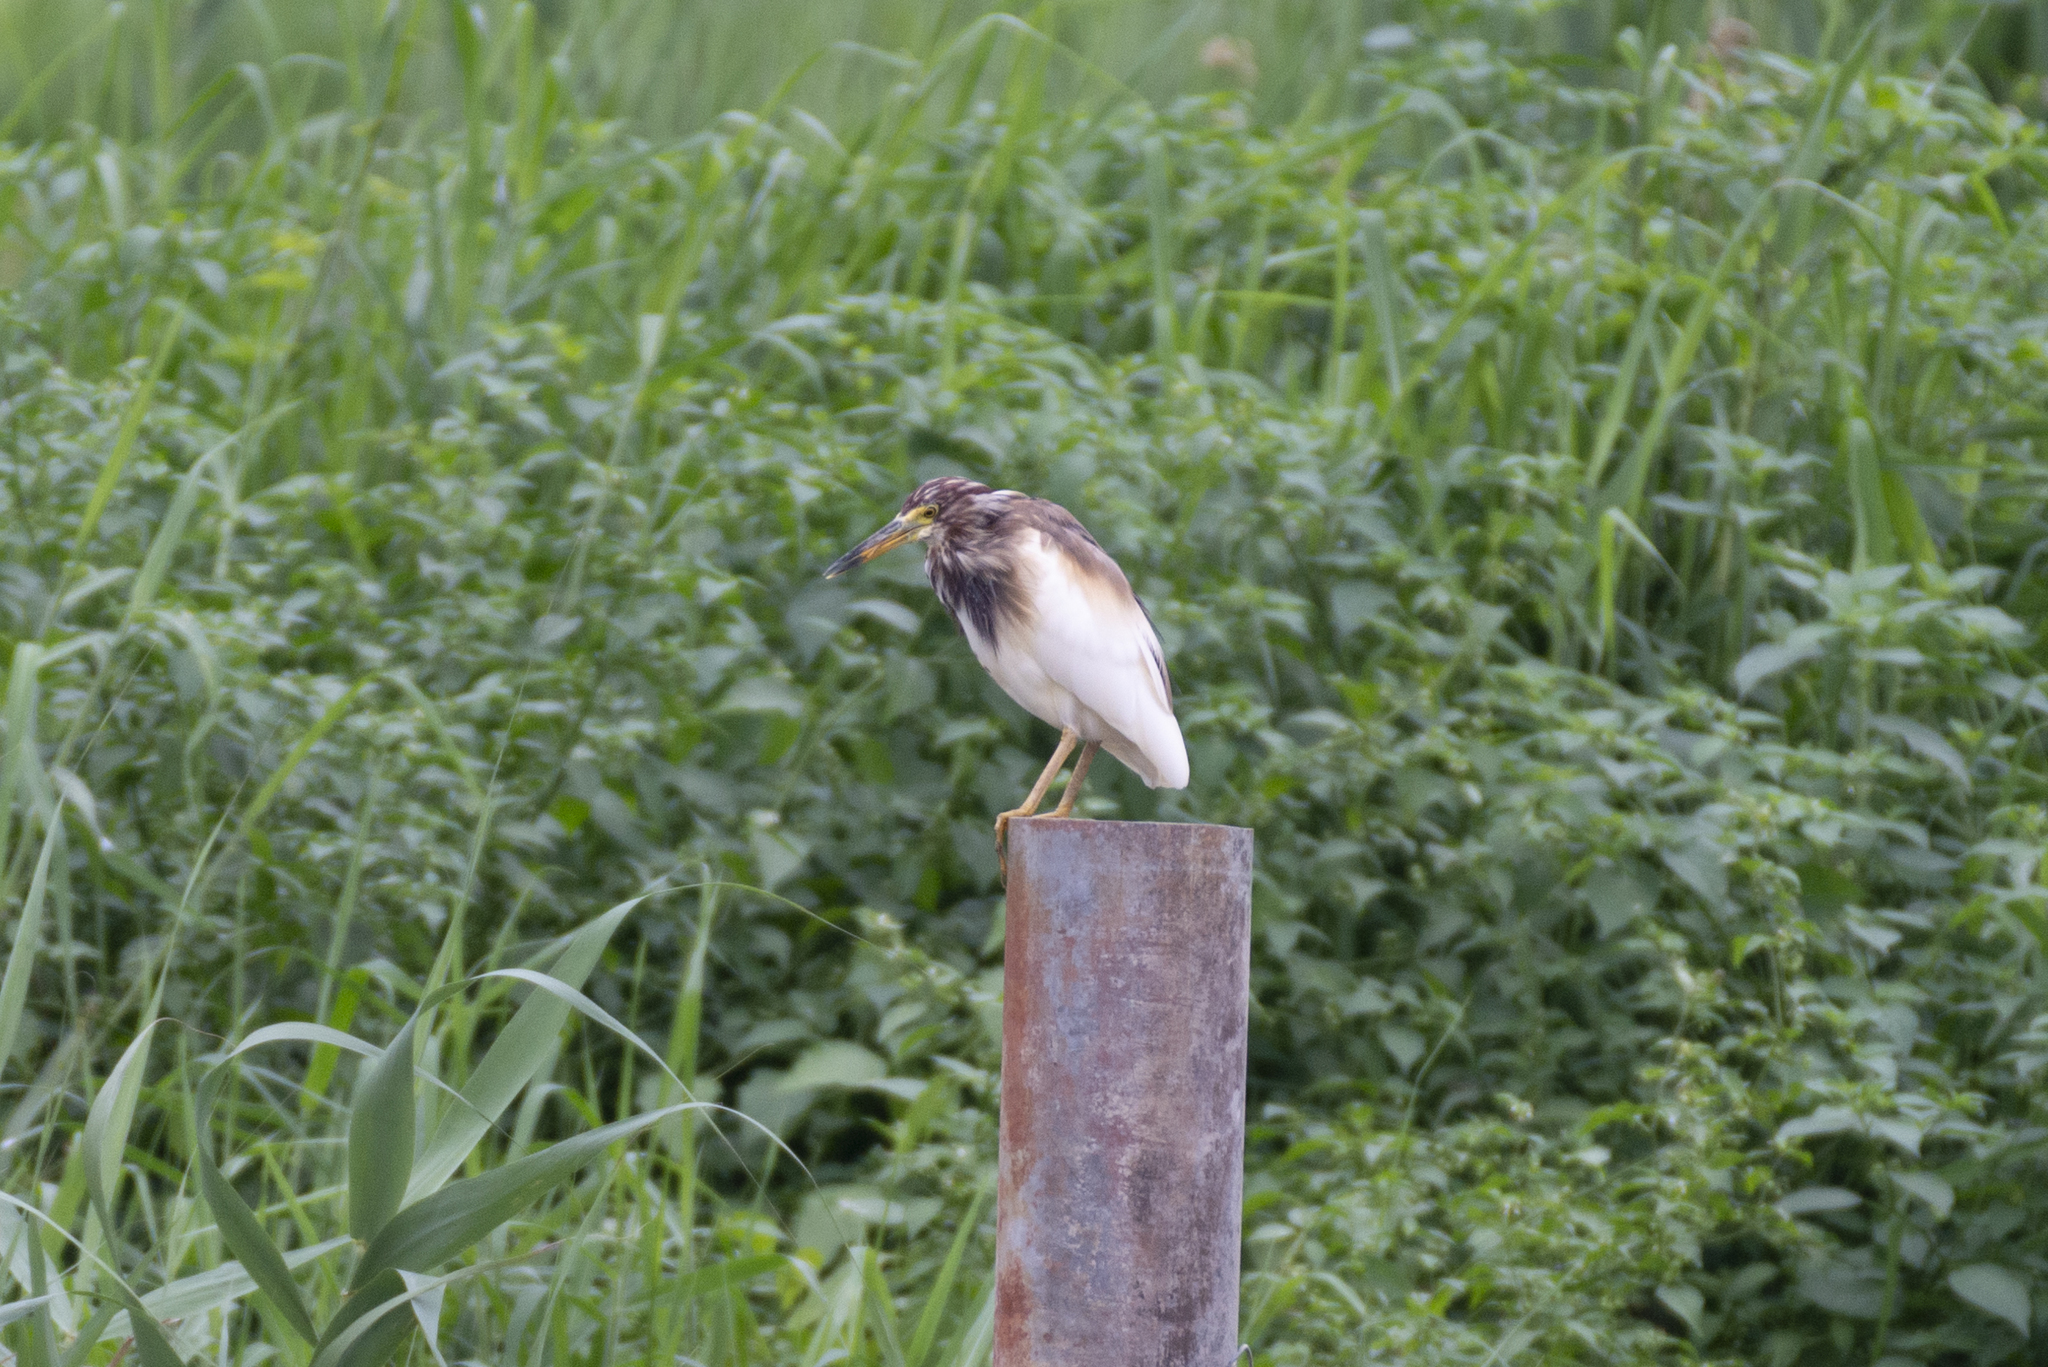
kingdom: Animalia
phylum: Chordata
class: Aves
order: Pelecaniformes
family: Ardeidae
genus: Ardeola
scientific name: Ardeola bacchus
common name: Chinese pond heron
